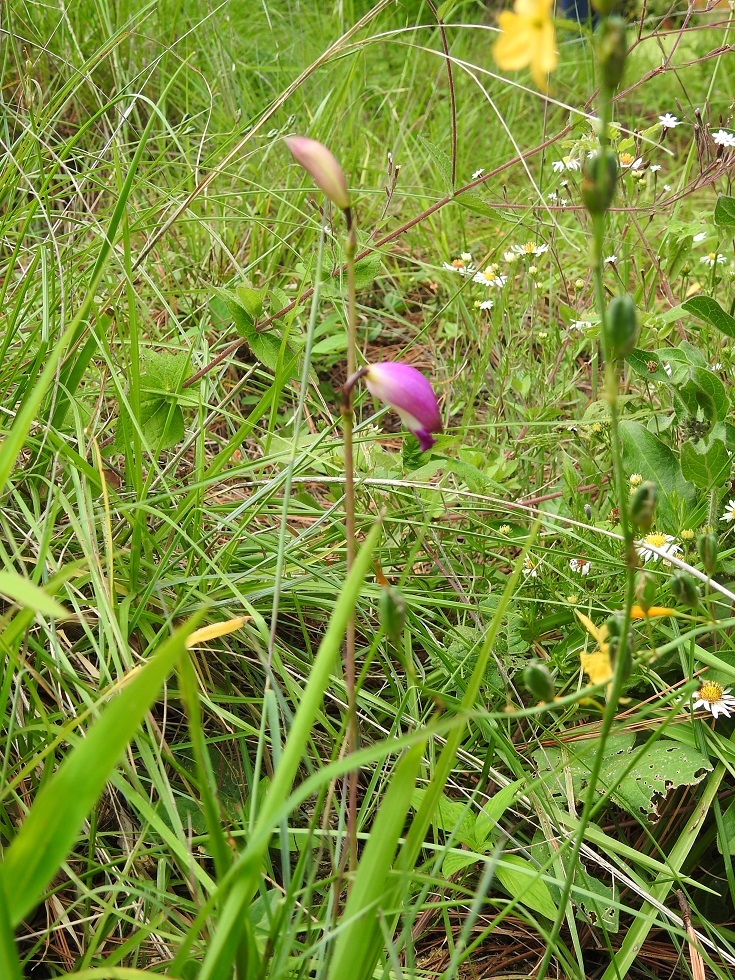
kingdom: Plantae
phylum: Tracheophyta
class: Liliopsida
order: Asparagales
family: Orchidaceae
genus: Bletia
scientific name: Bletia campanulata
